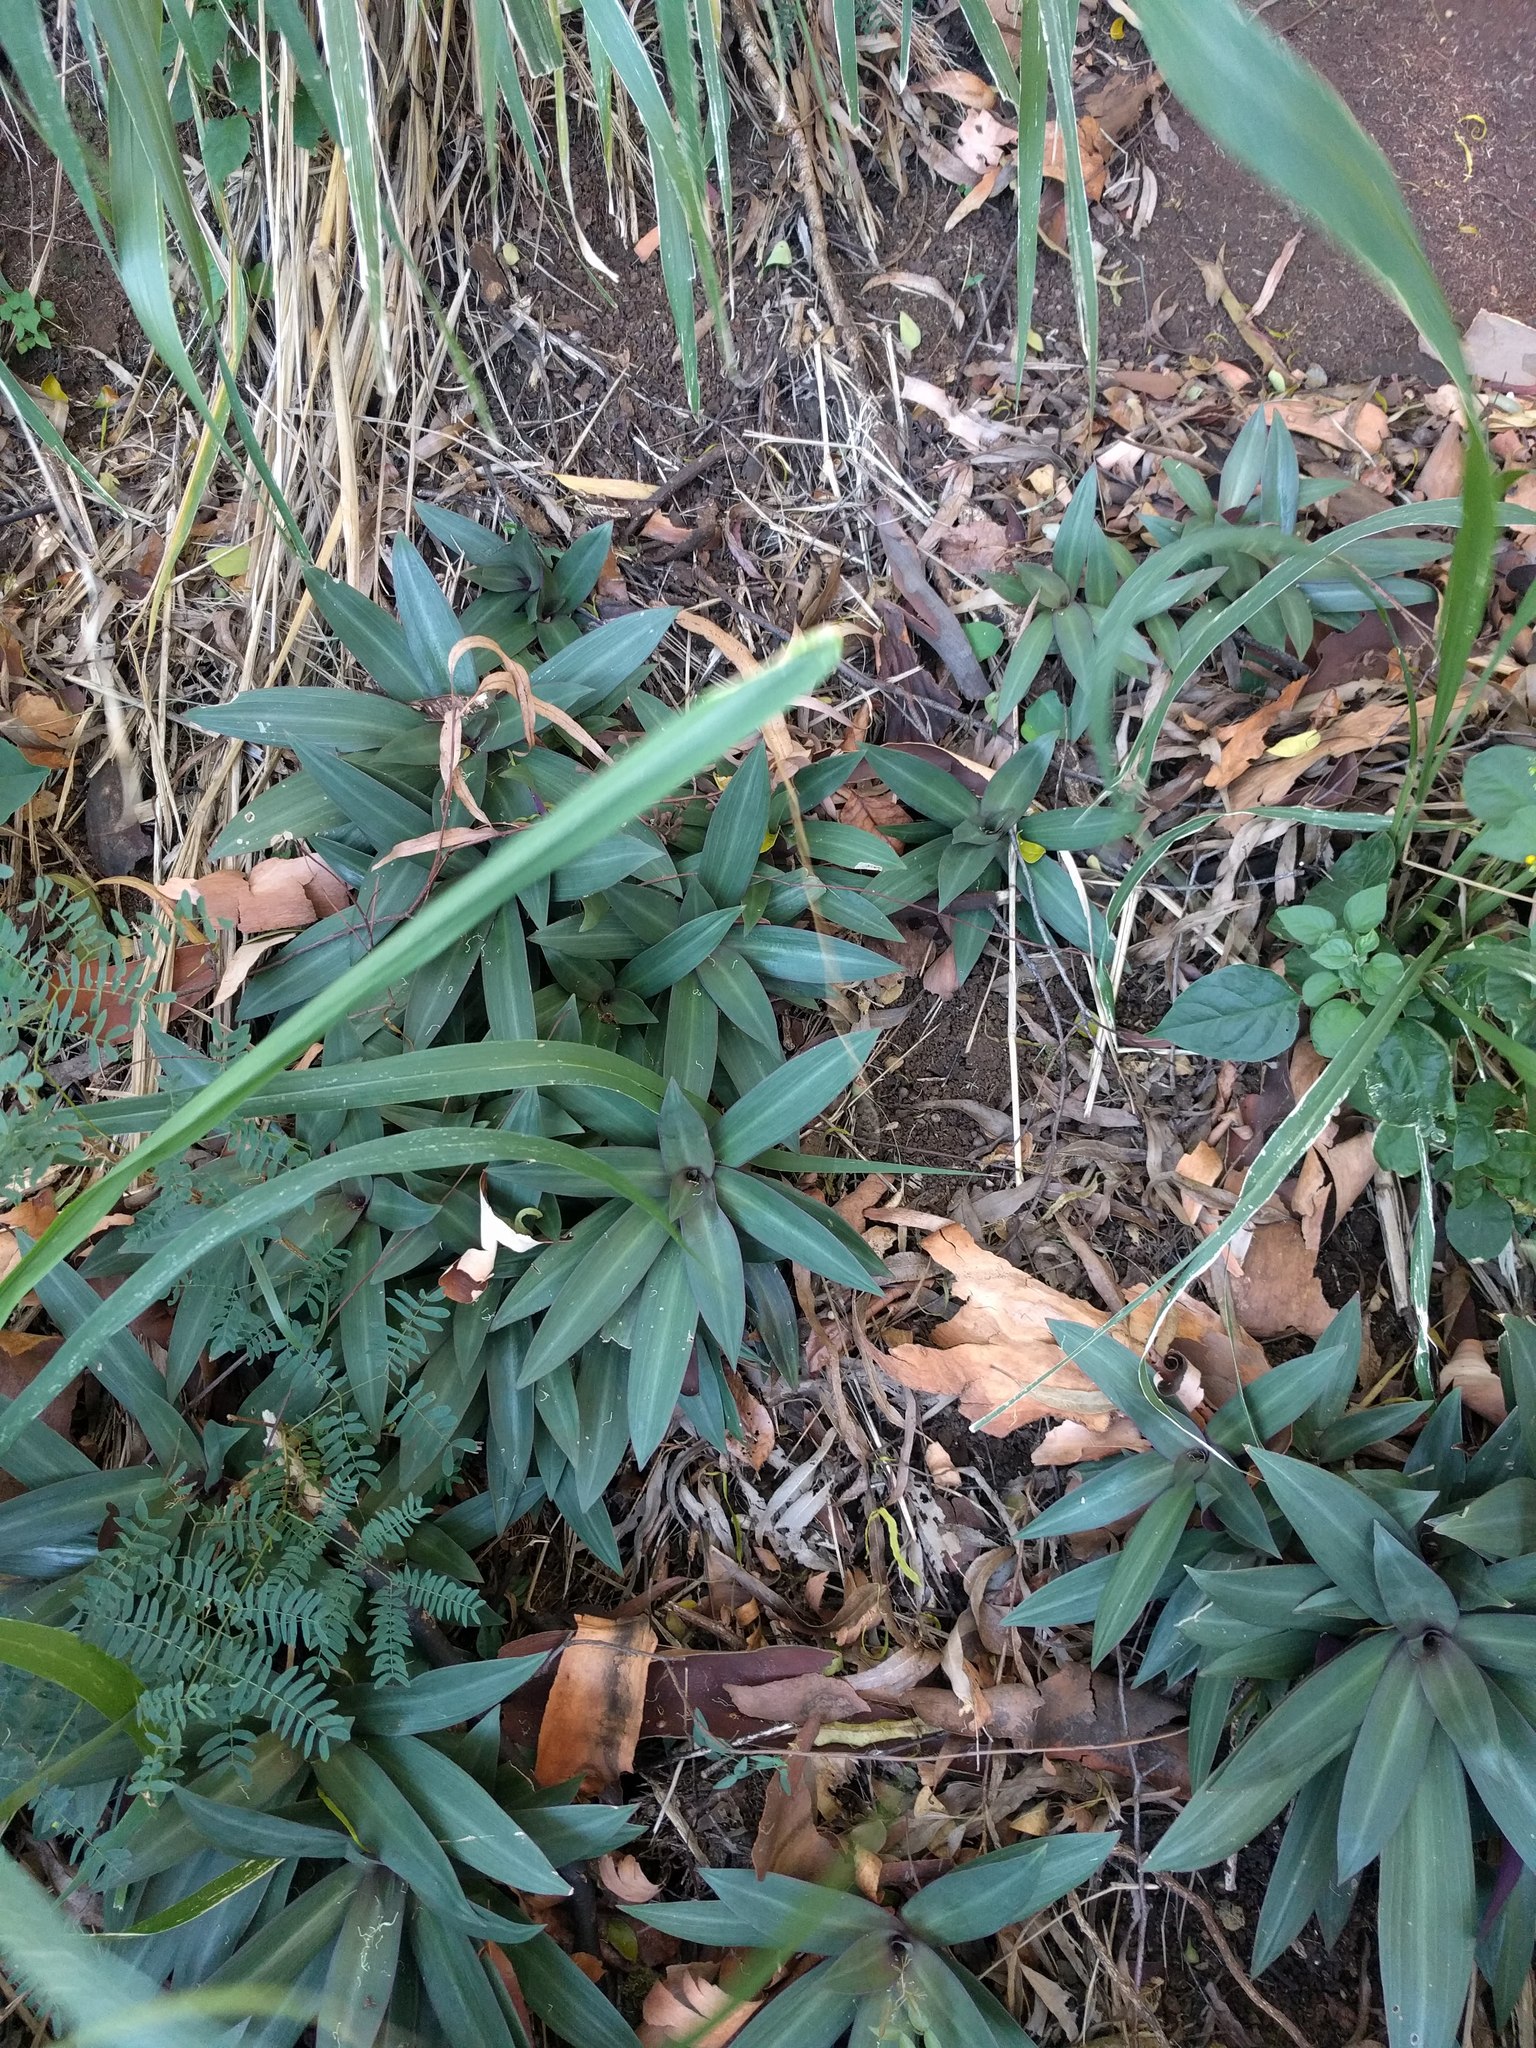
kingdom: Plantae
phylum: Tracheophyta
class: Liliopsida
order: Commelinales
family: Commelinaceae
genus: Tradescantia
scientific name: Tradescantia spathacea
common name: Boatlily
